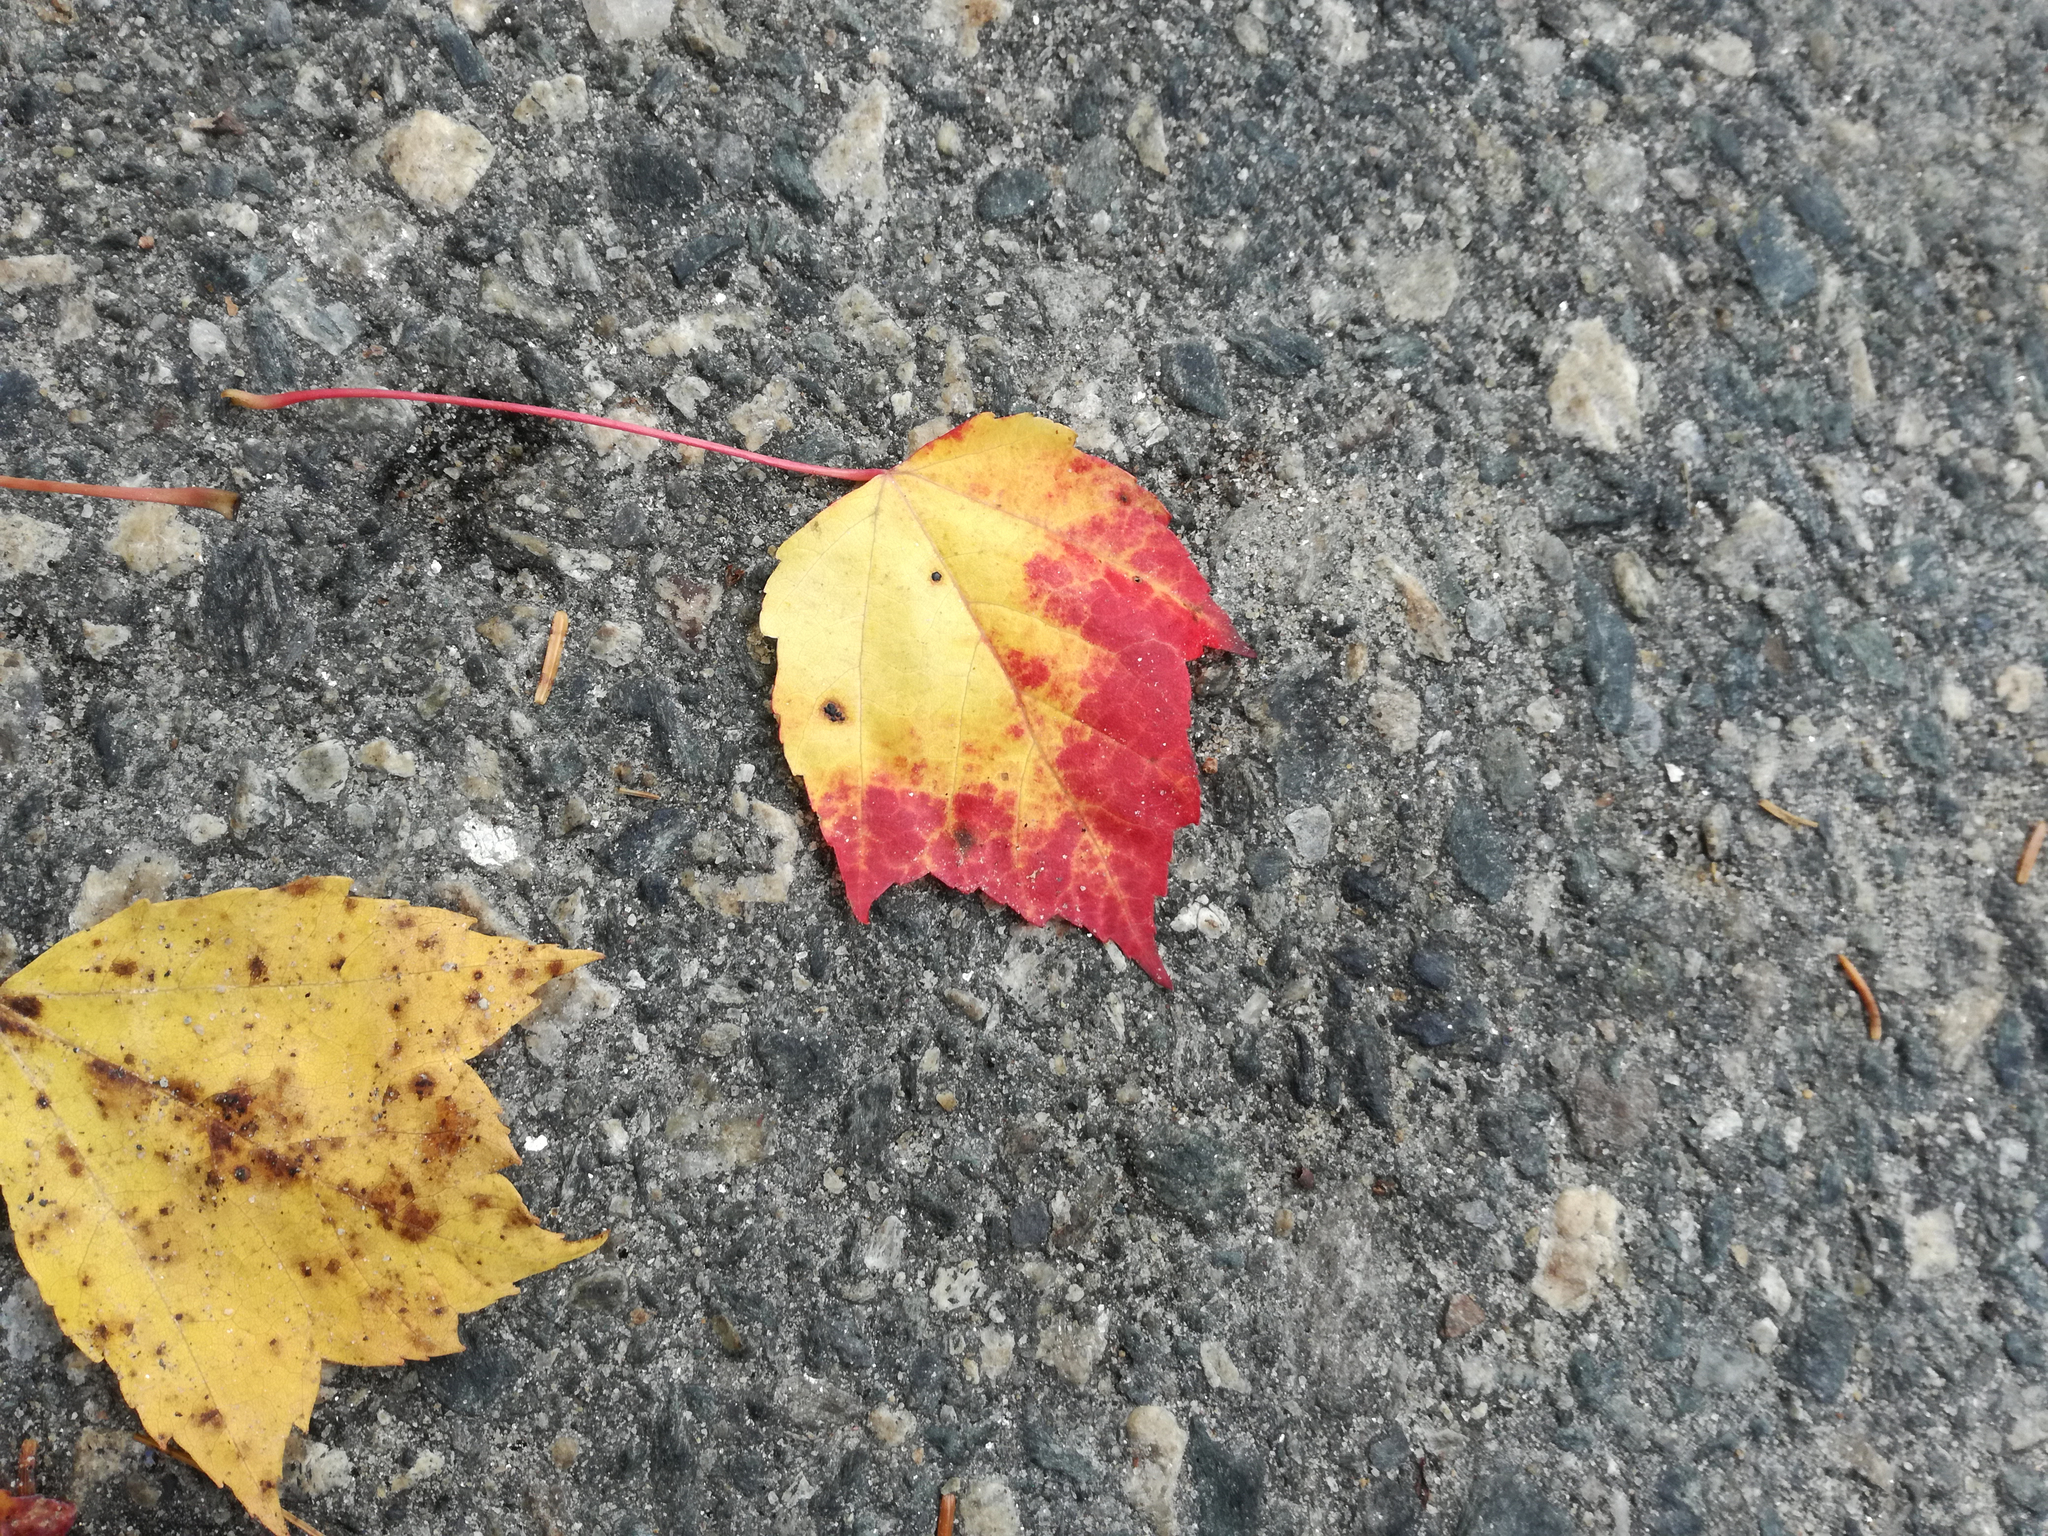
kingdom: Plantae
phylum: Tracheophyta
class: Magnoliopsida
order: Sapindales
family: Sapindaceae
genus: Acer
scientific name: Acer rubrum
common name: Red maple
